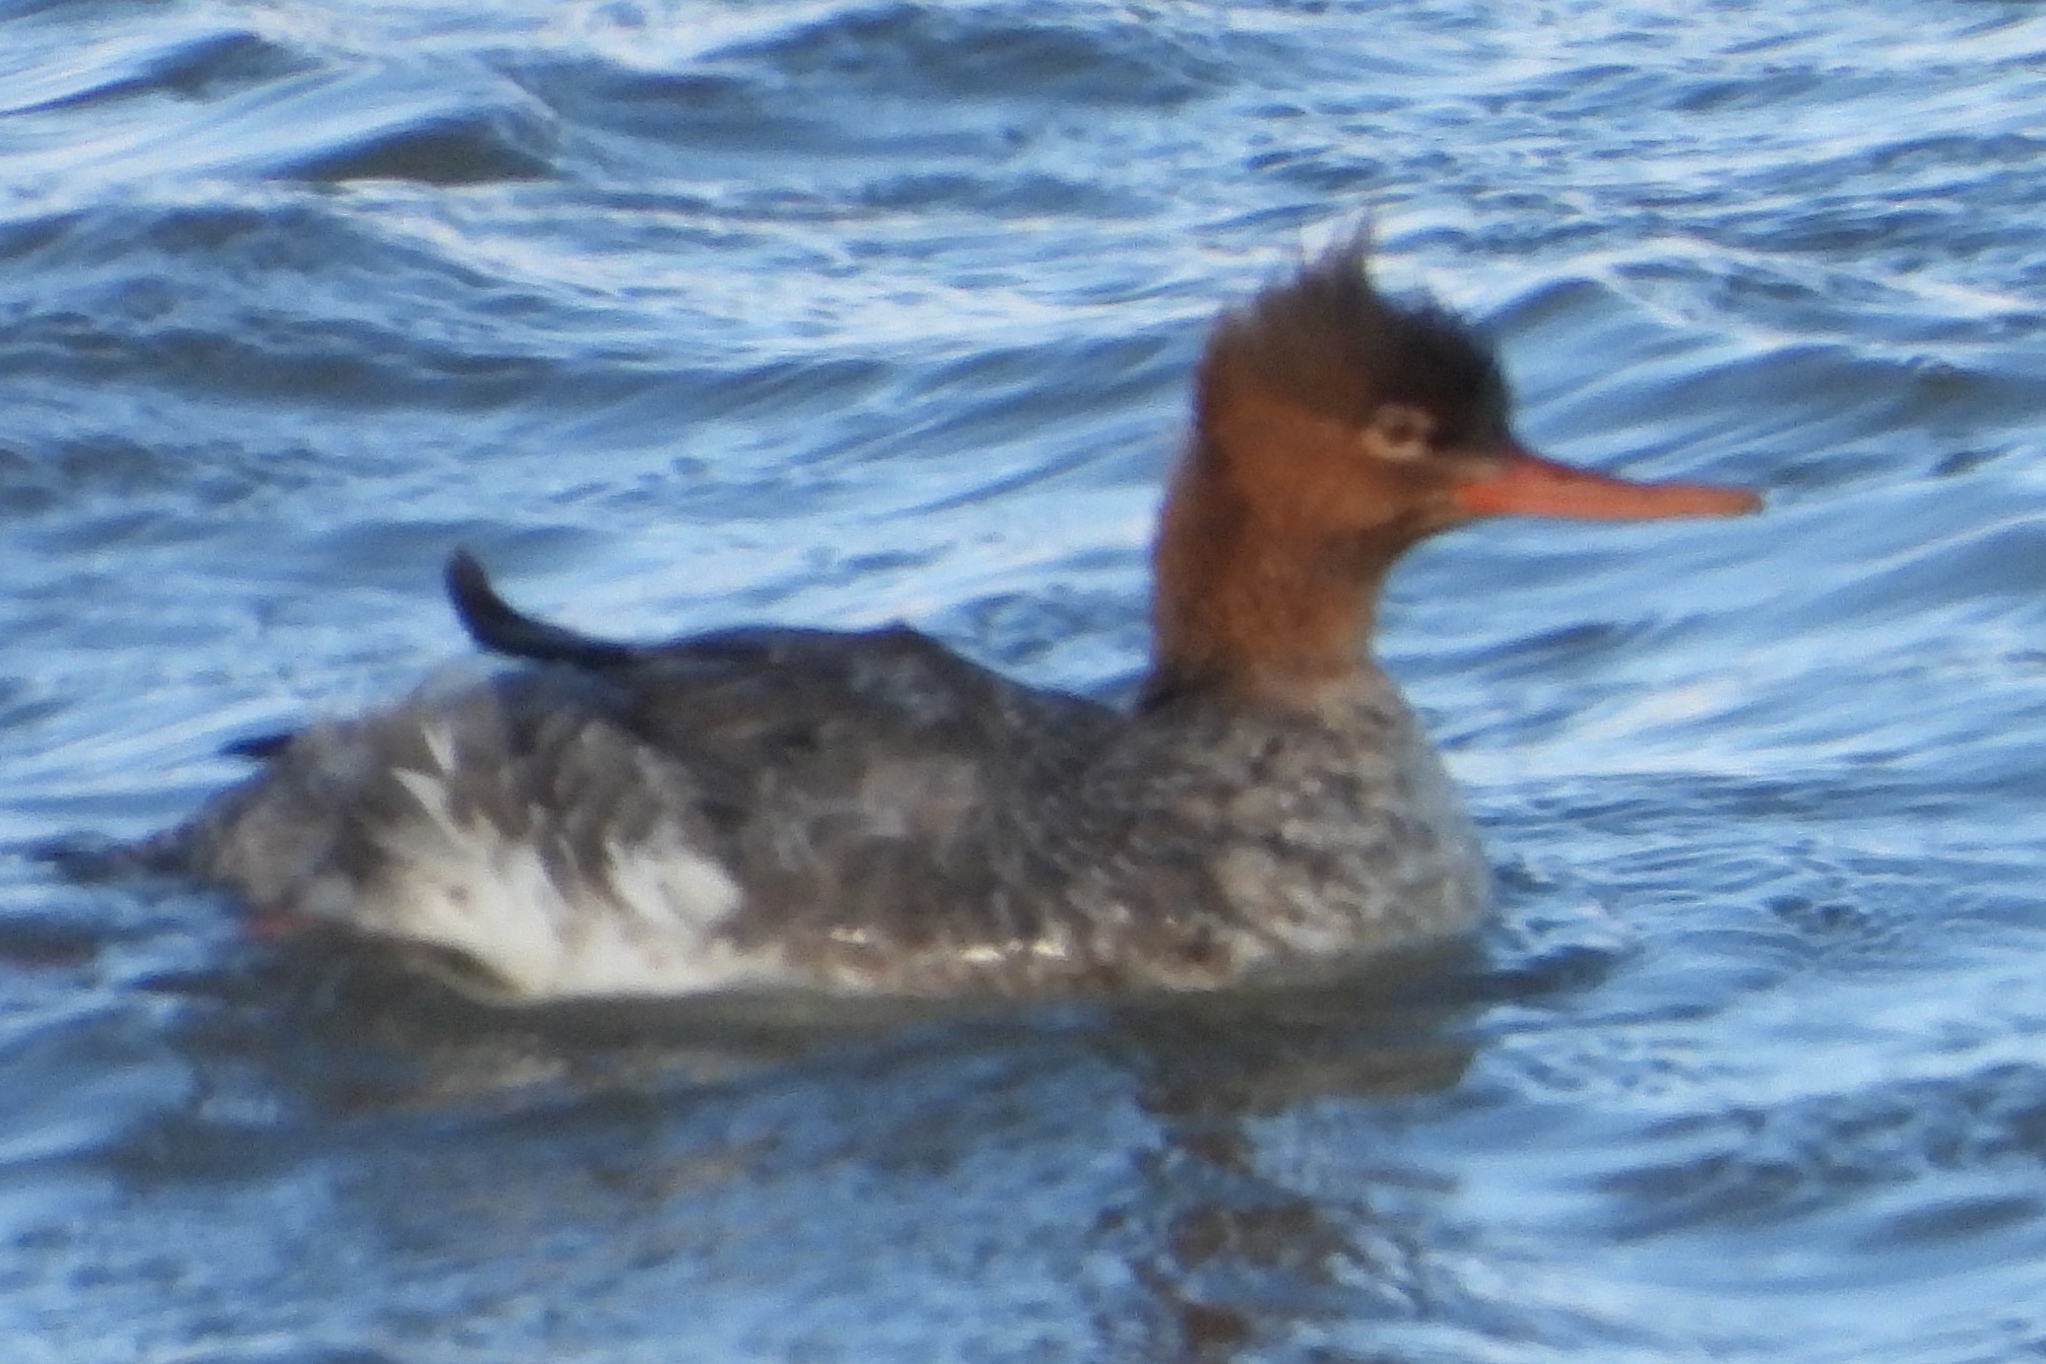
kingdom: Animalia
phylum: Chordata
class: Aves
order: Anseriformes
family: Anatidae
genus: Mergus
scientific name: Mergus serrator
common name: Red-breasted merganser
